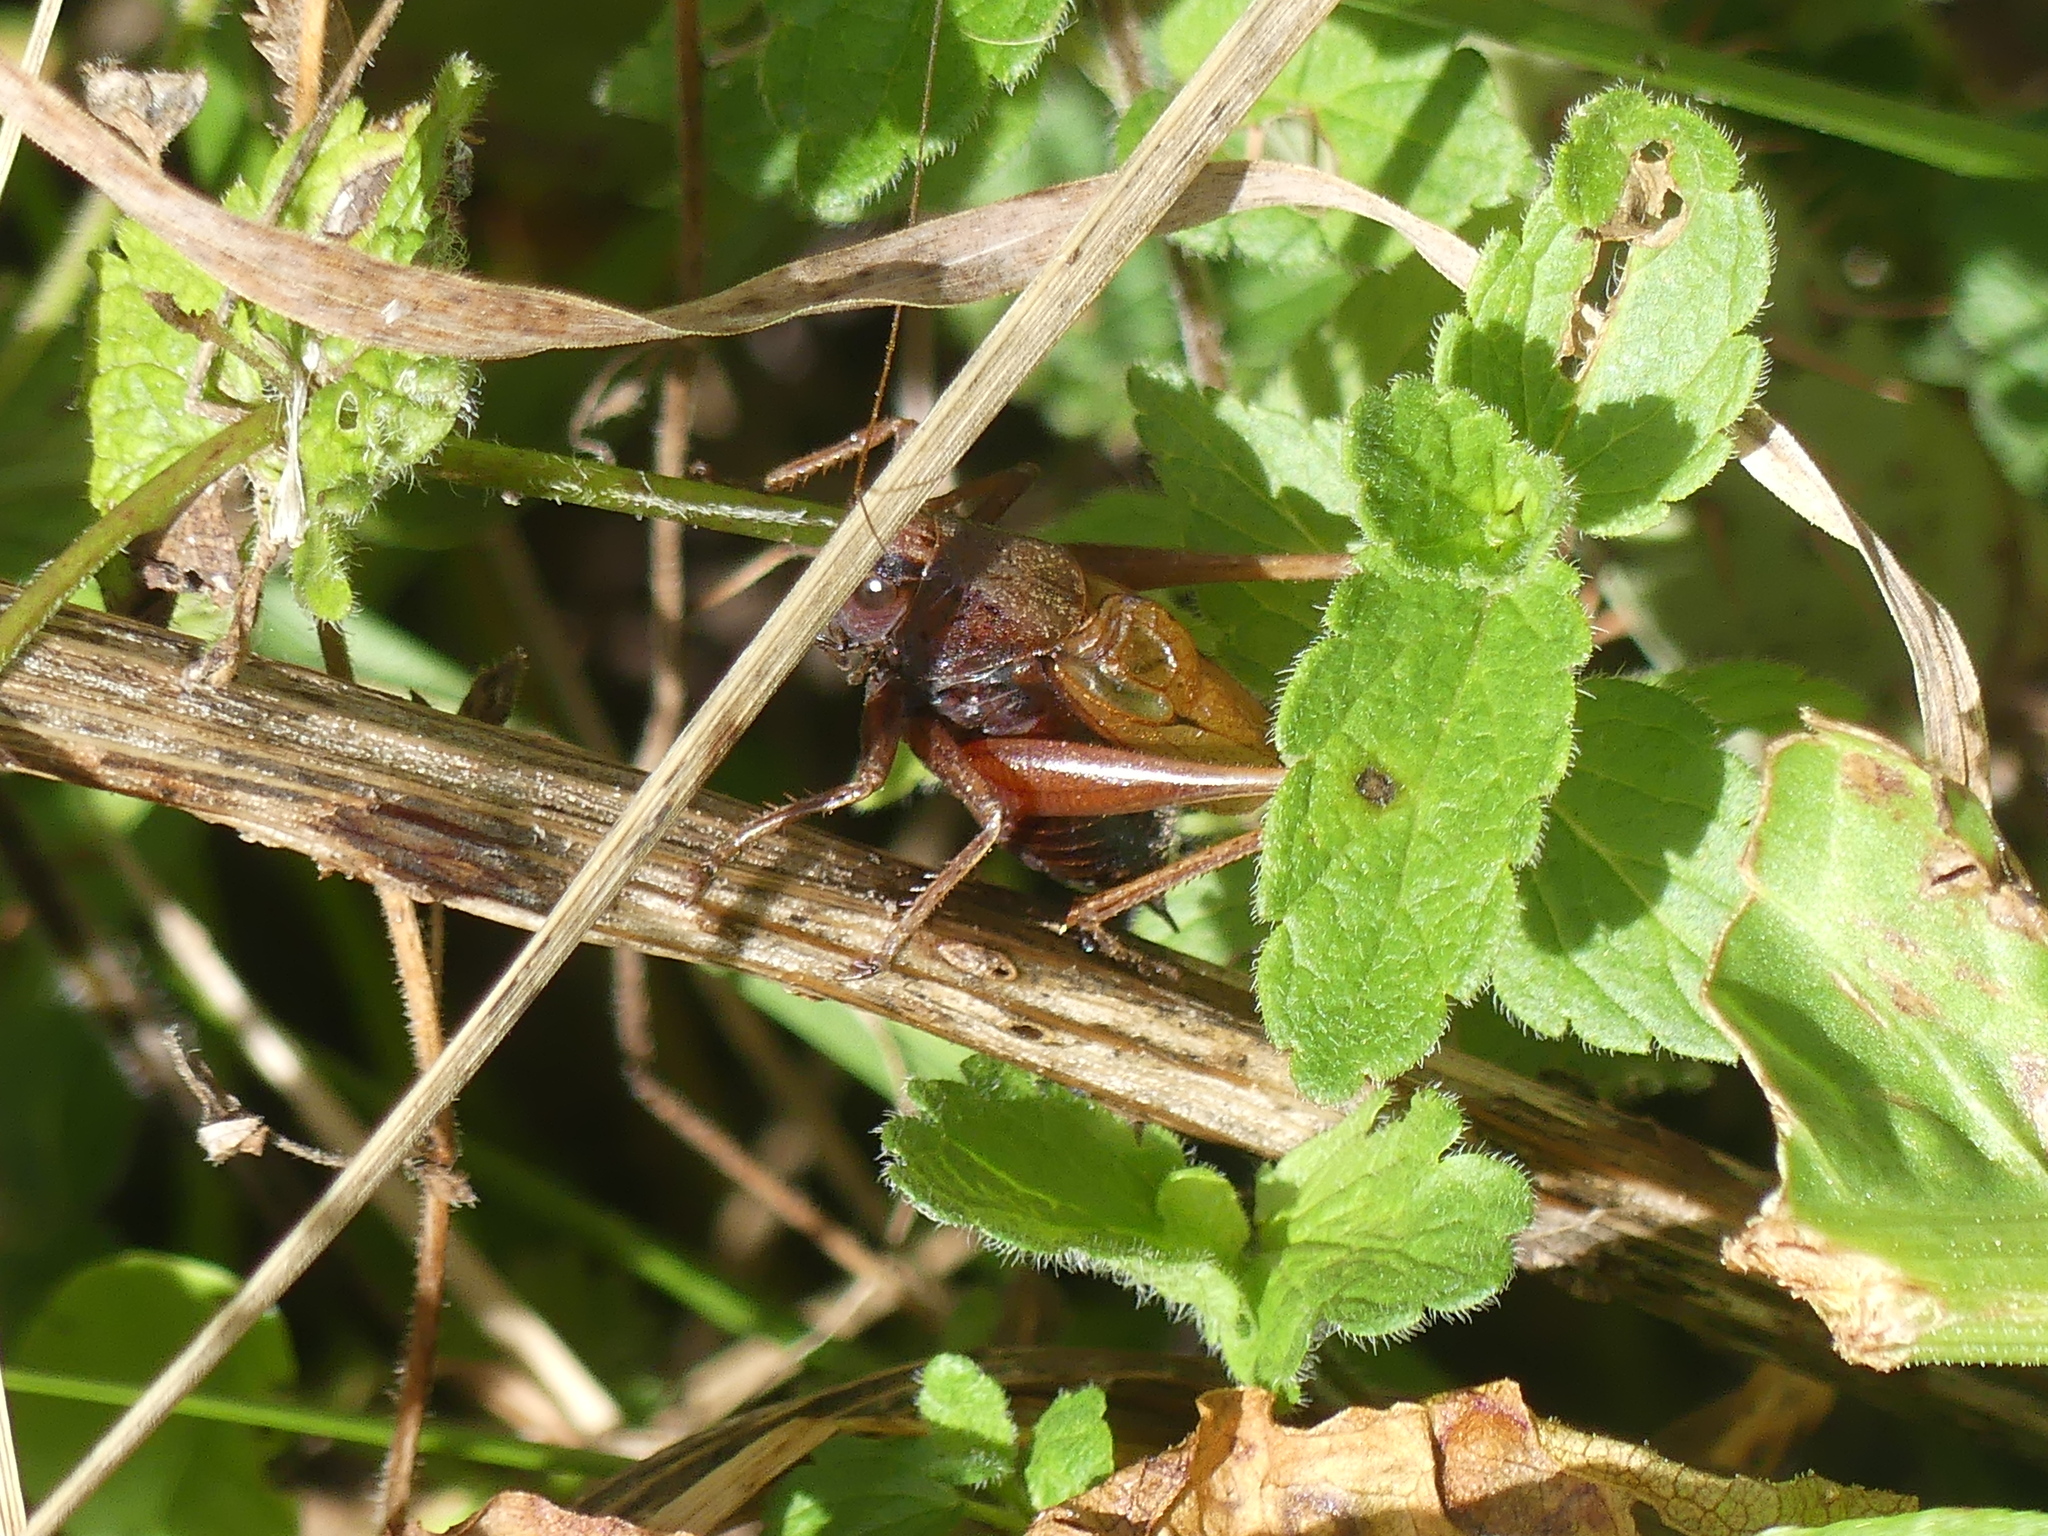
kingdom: Animalia
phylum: Arthropoda
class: Insecta
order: Orthoptera
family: Tettigoniidae
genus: Zeuneriana
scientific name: Zeuneriana burriana
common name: Burr's bush-cricket
